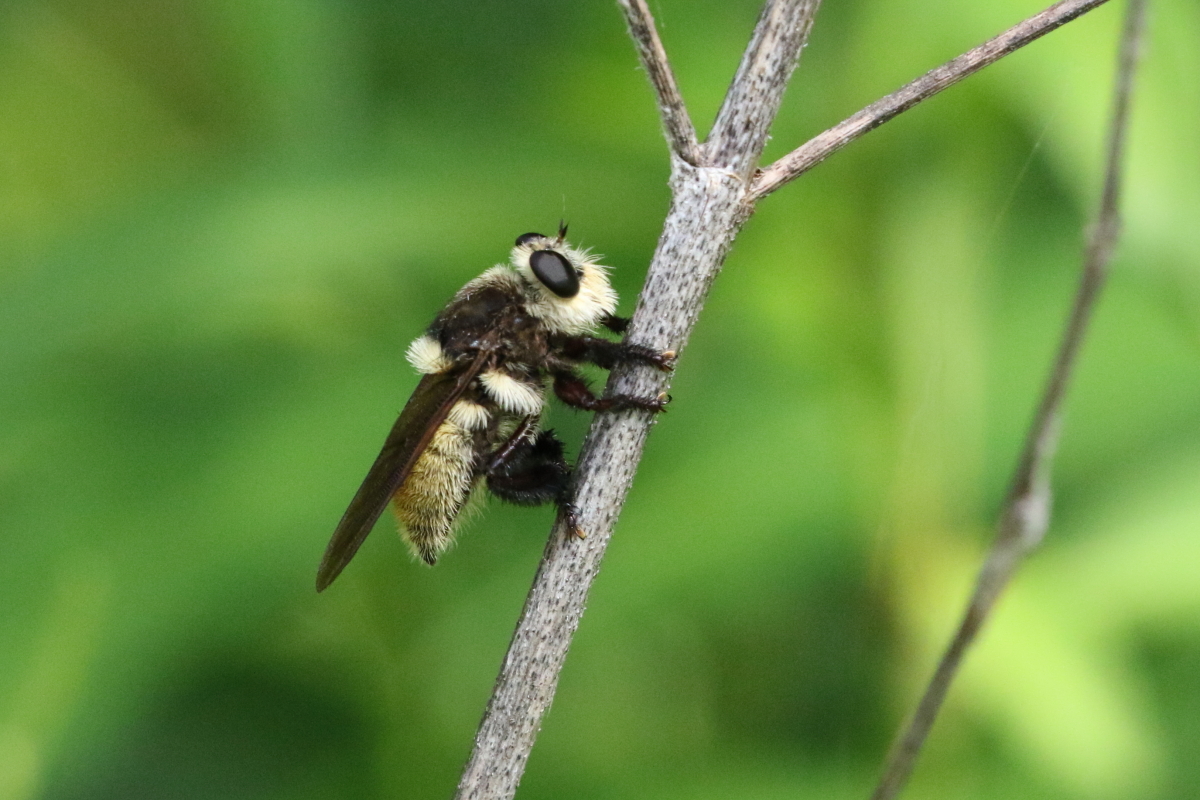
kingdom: Animalia
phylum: Arthropoda
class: Insecta
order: Diptera
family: Asilidae
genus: Mallophora
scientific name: Mallophora fautrix
